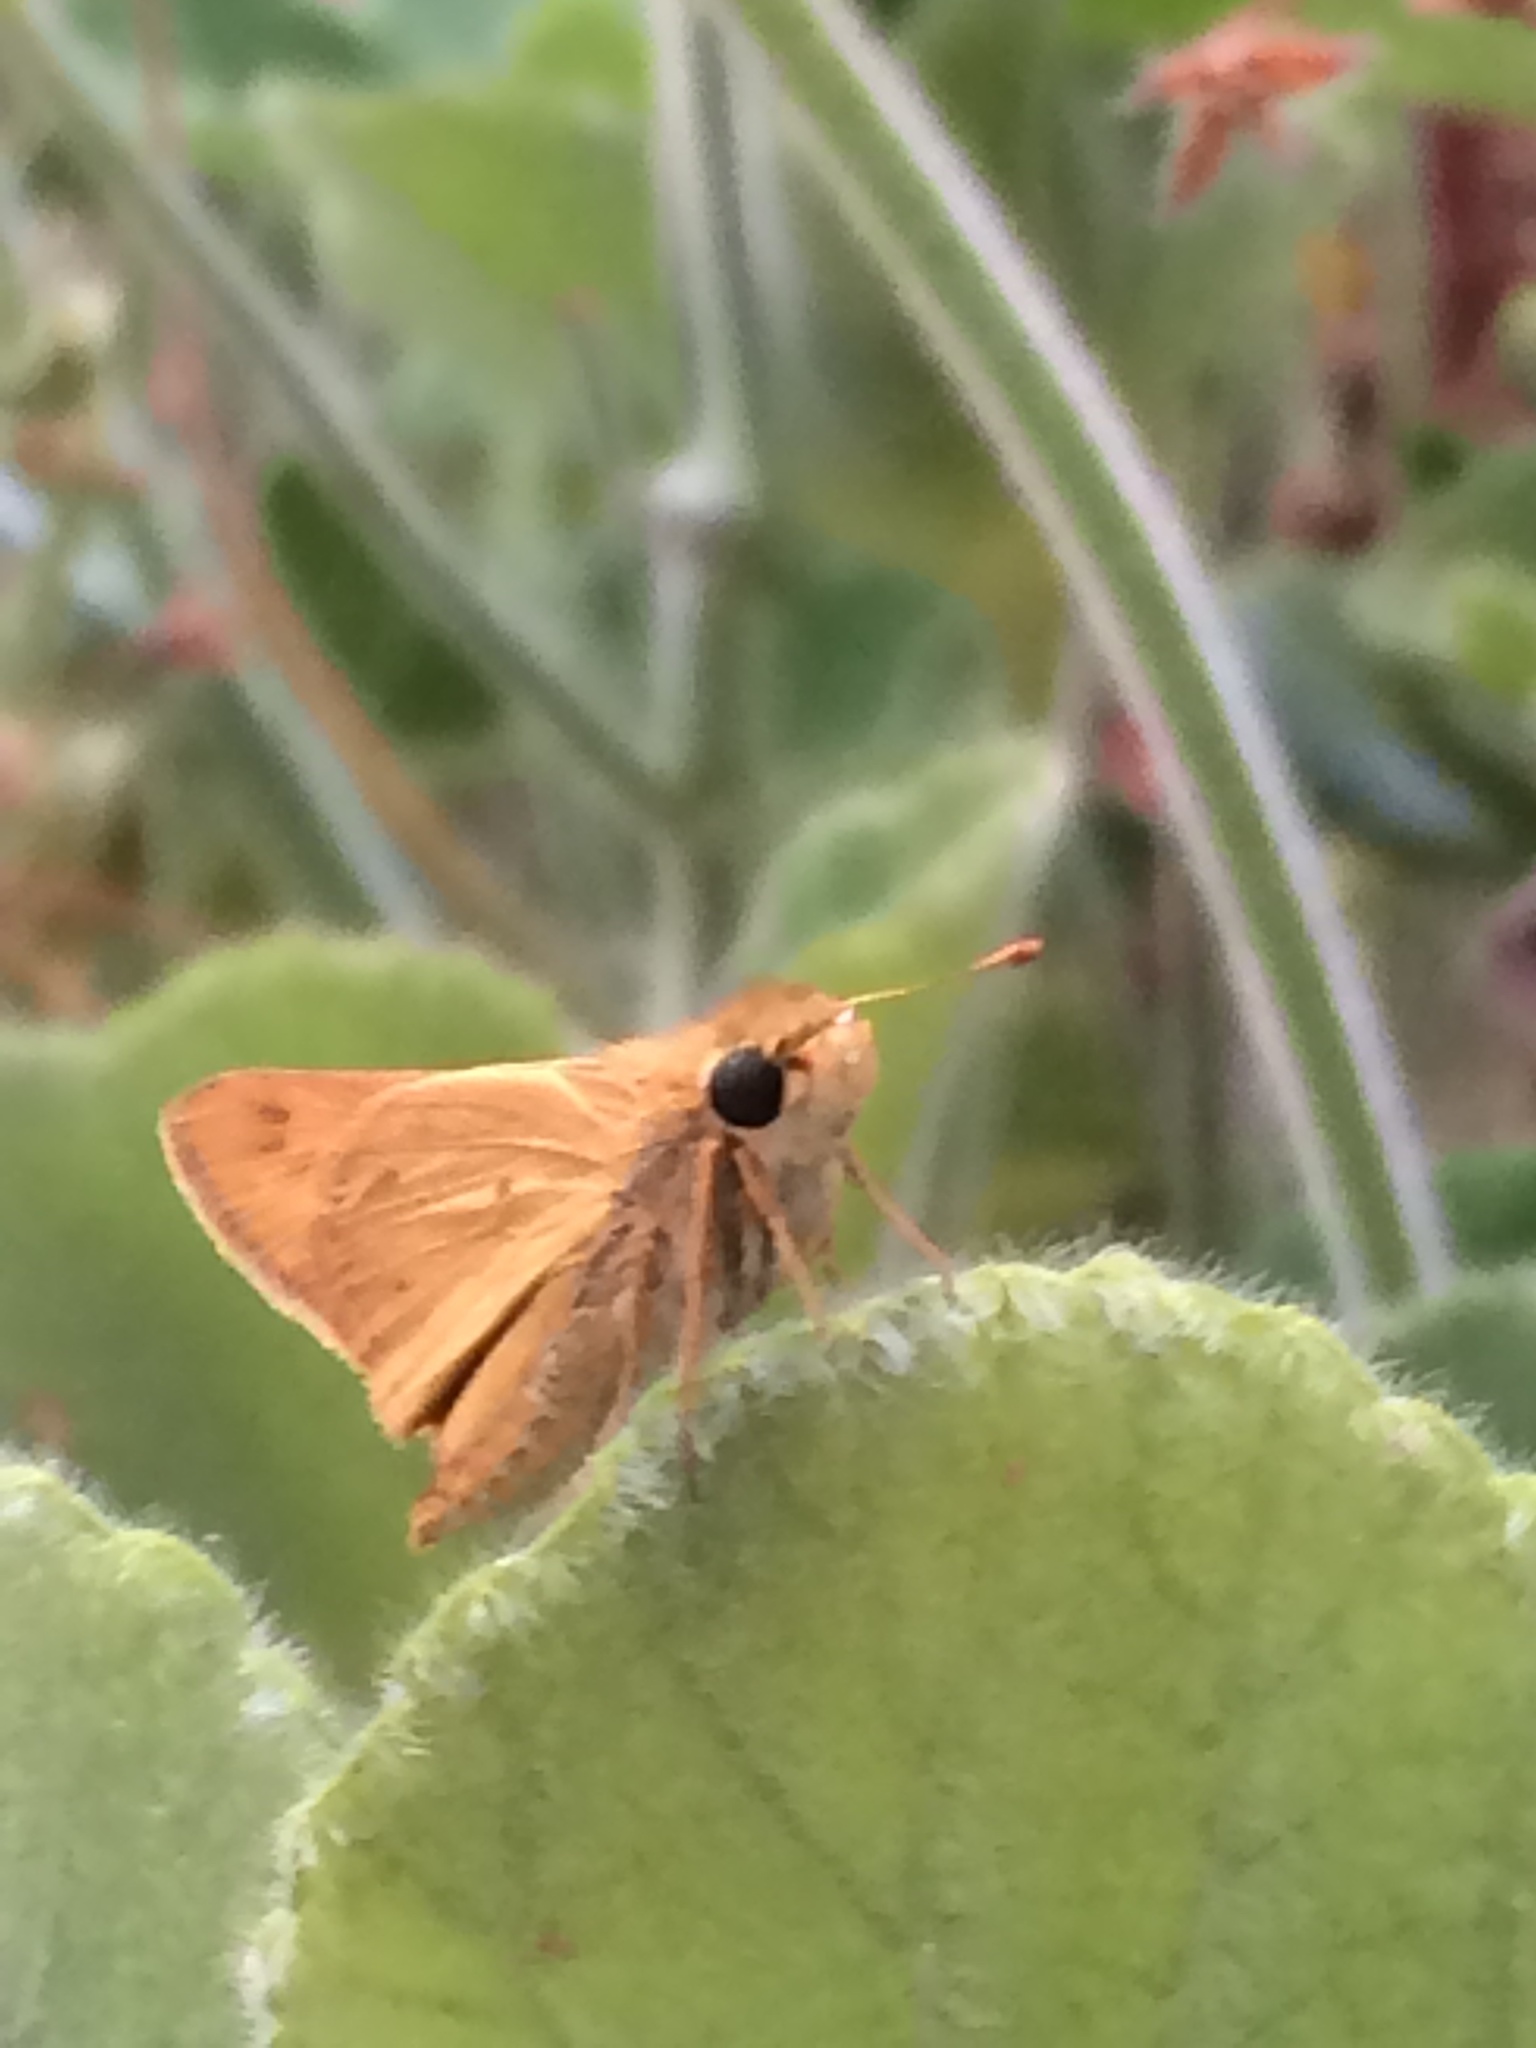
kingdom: Animalia
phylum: Arthropoda
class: Insecta
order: Lepidoptera
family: Hesperiidae
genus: Hylephila
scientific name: Hylephila phyleus
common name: Fiery skipper
